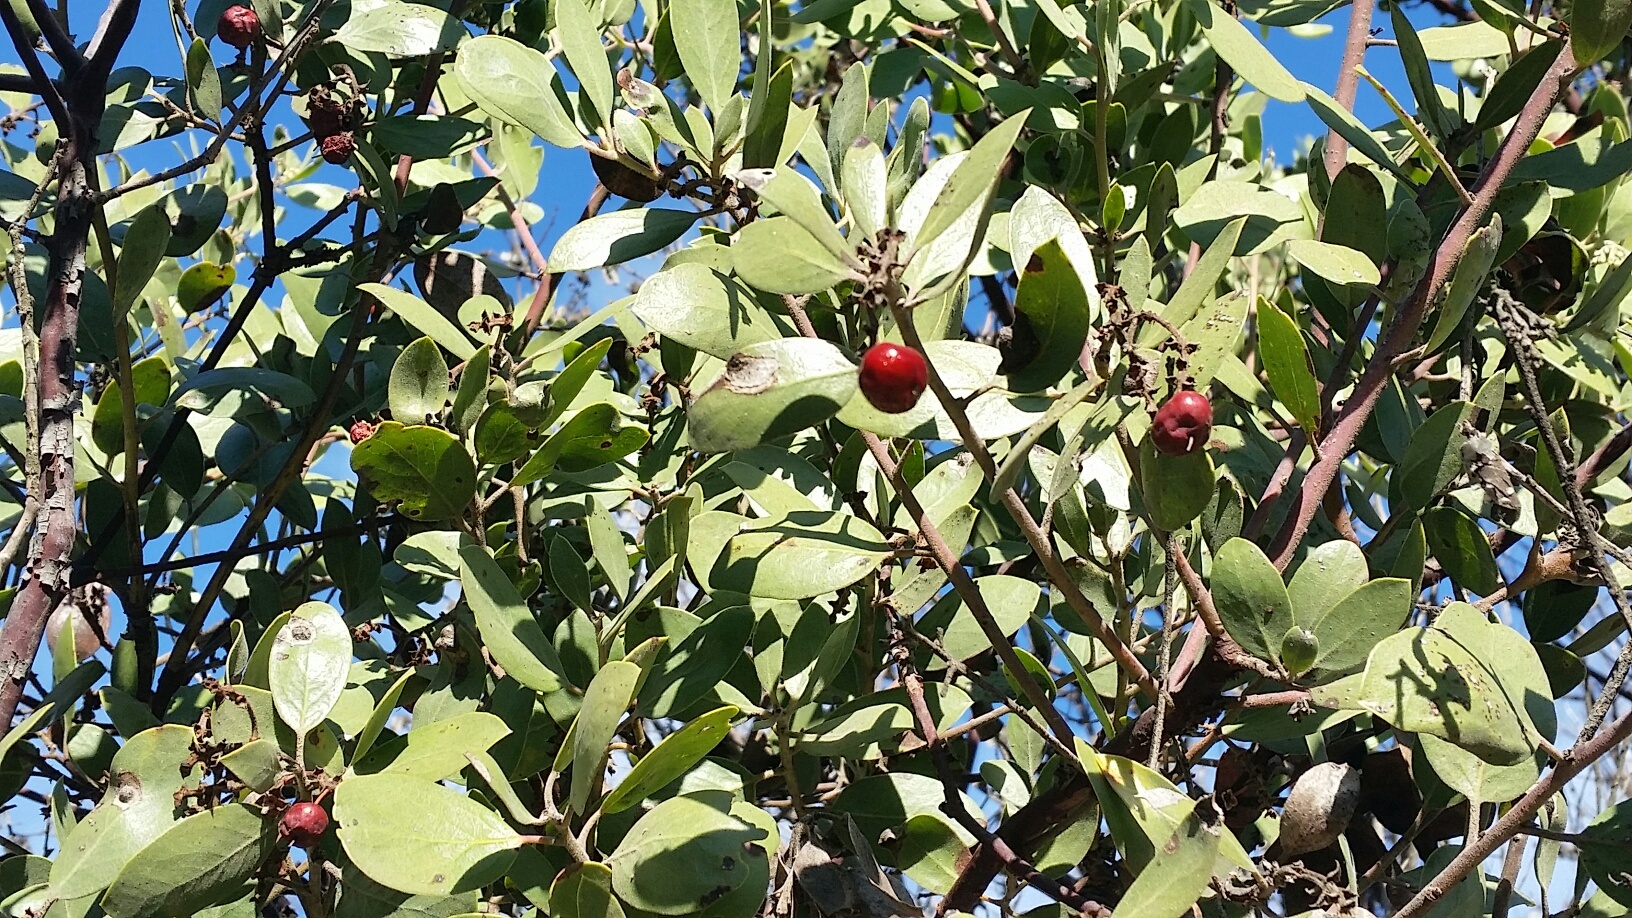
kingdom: Plantae
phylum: Tracheophyta
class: Magnoliopsida
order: Ericales
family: Ericaceae
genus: Arctostaphylos
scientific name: Arctostaphylos manzanita
